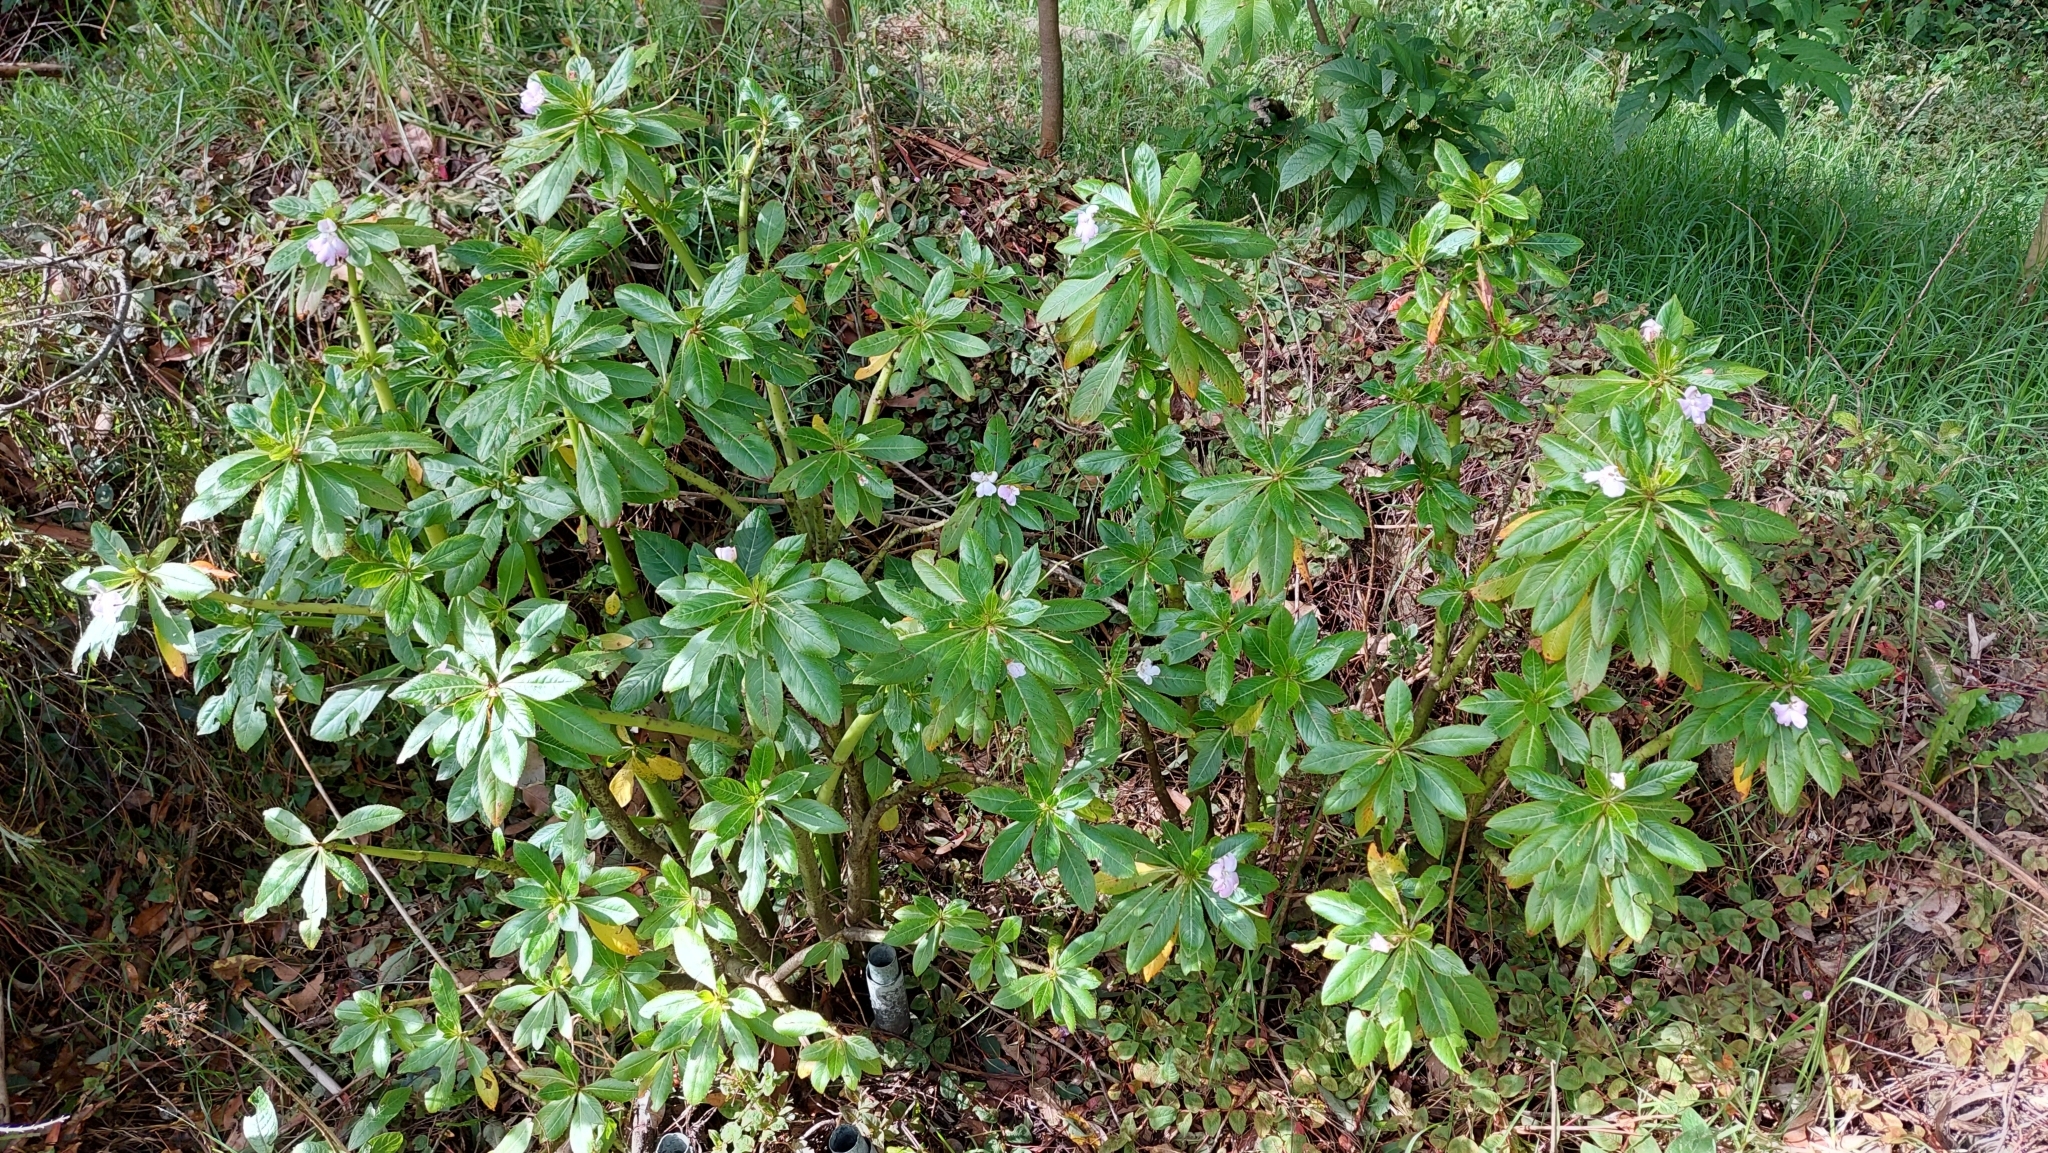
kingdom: Plantae
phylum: Tracheophyta
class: Magnoliopsida
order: Ericales
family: Balsaminaceae
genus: Impatiens
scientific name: Impatiens sodenii
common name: Oliver's touch-me-not
